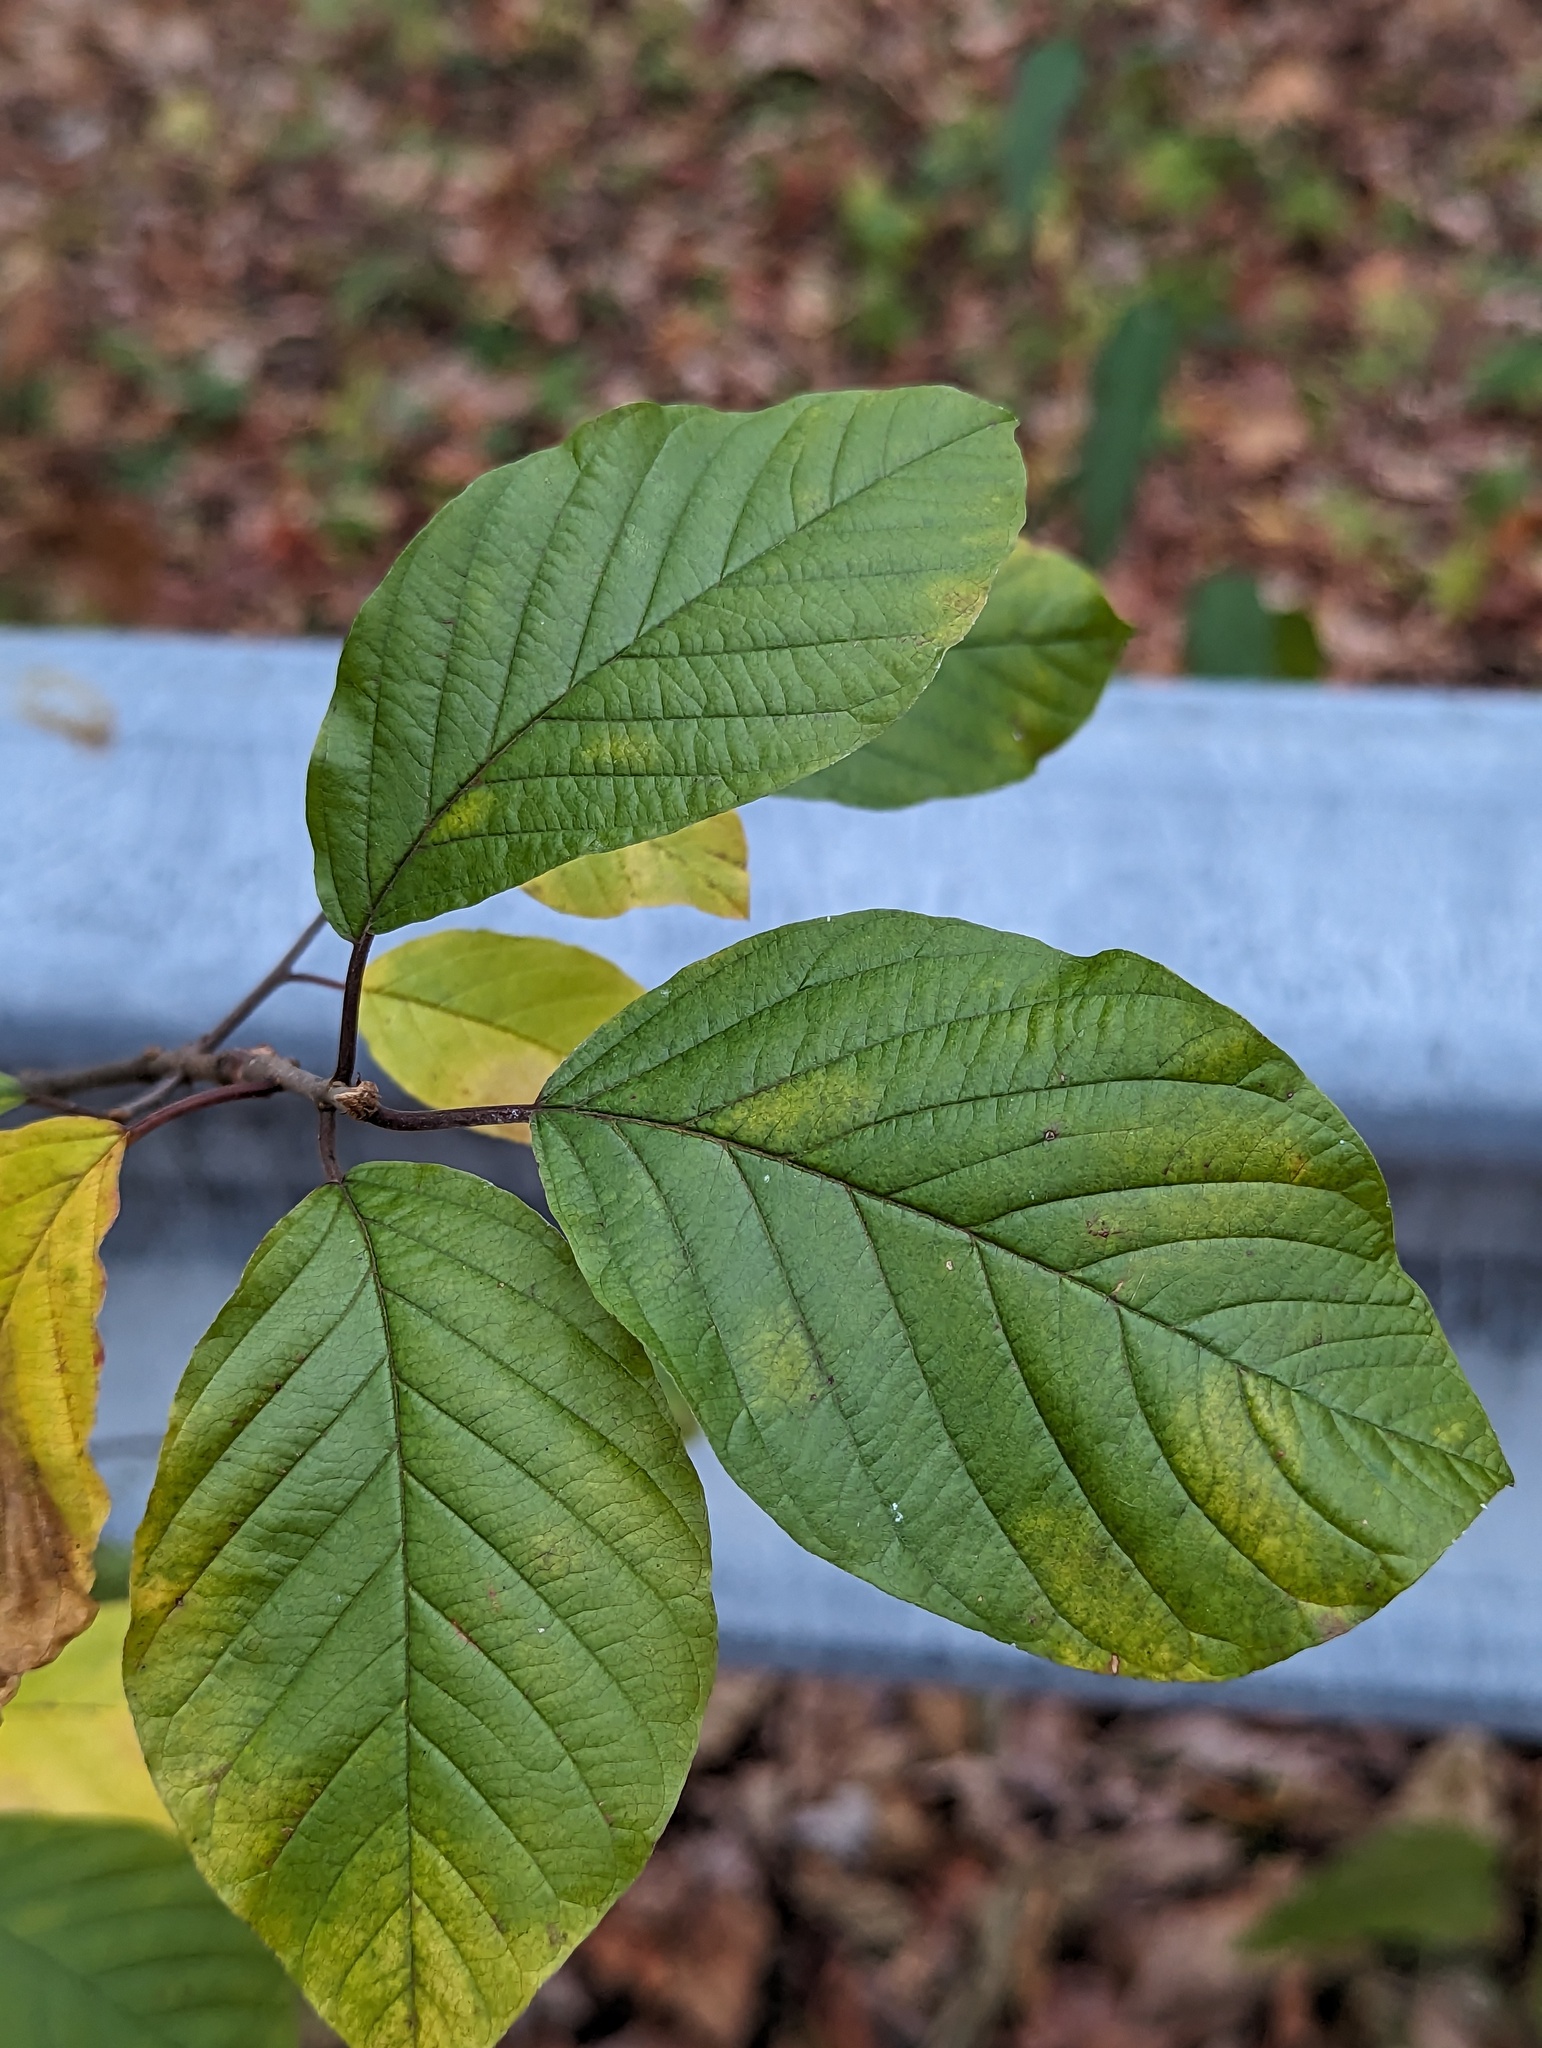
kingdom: Plantae
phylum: Tracheophyta
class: Magnoliopsida
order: Rosales
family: Rhamnaceae
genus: Frangula
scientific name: Frangula alnus
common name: Alder buckthorn
